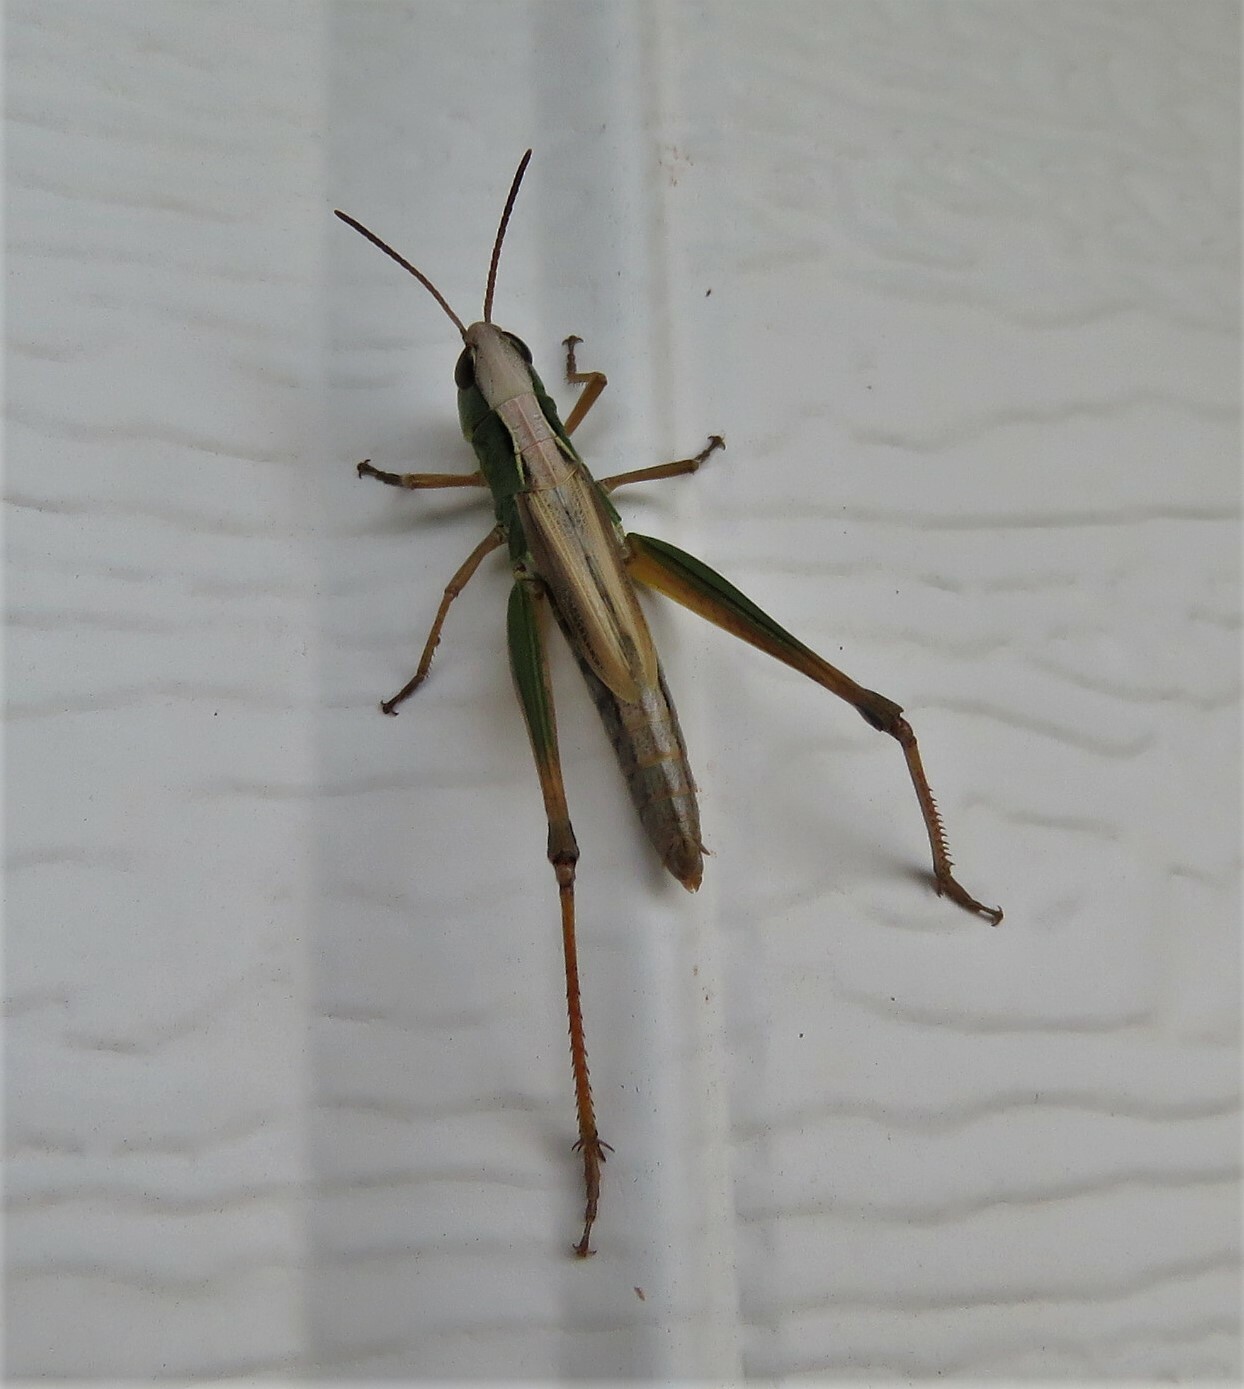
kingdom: Animalia
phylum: Arthropoda
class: Insecta
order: Orthoptera
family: Acrididae
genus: Pseudochorthippus
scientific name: Pseudochorthippus curtipennis
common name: Marsh meadow grasshopper
